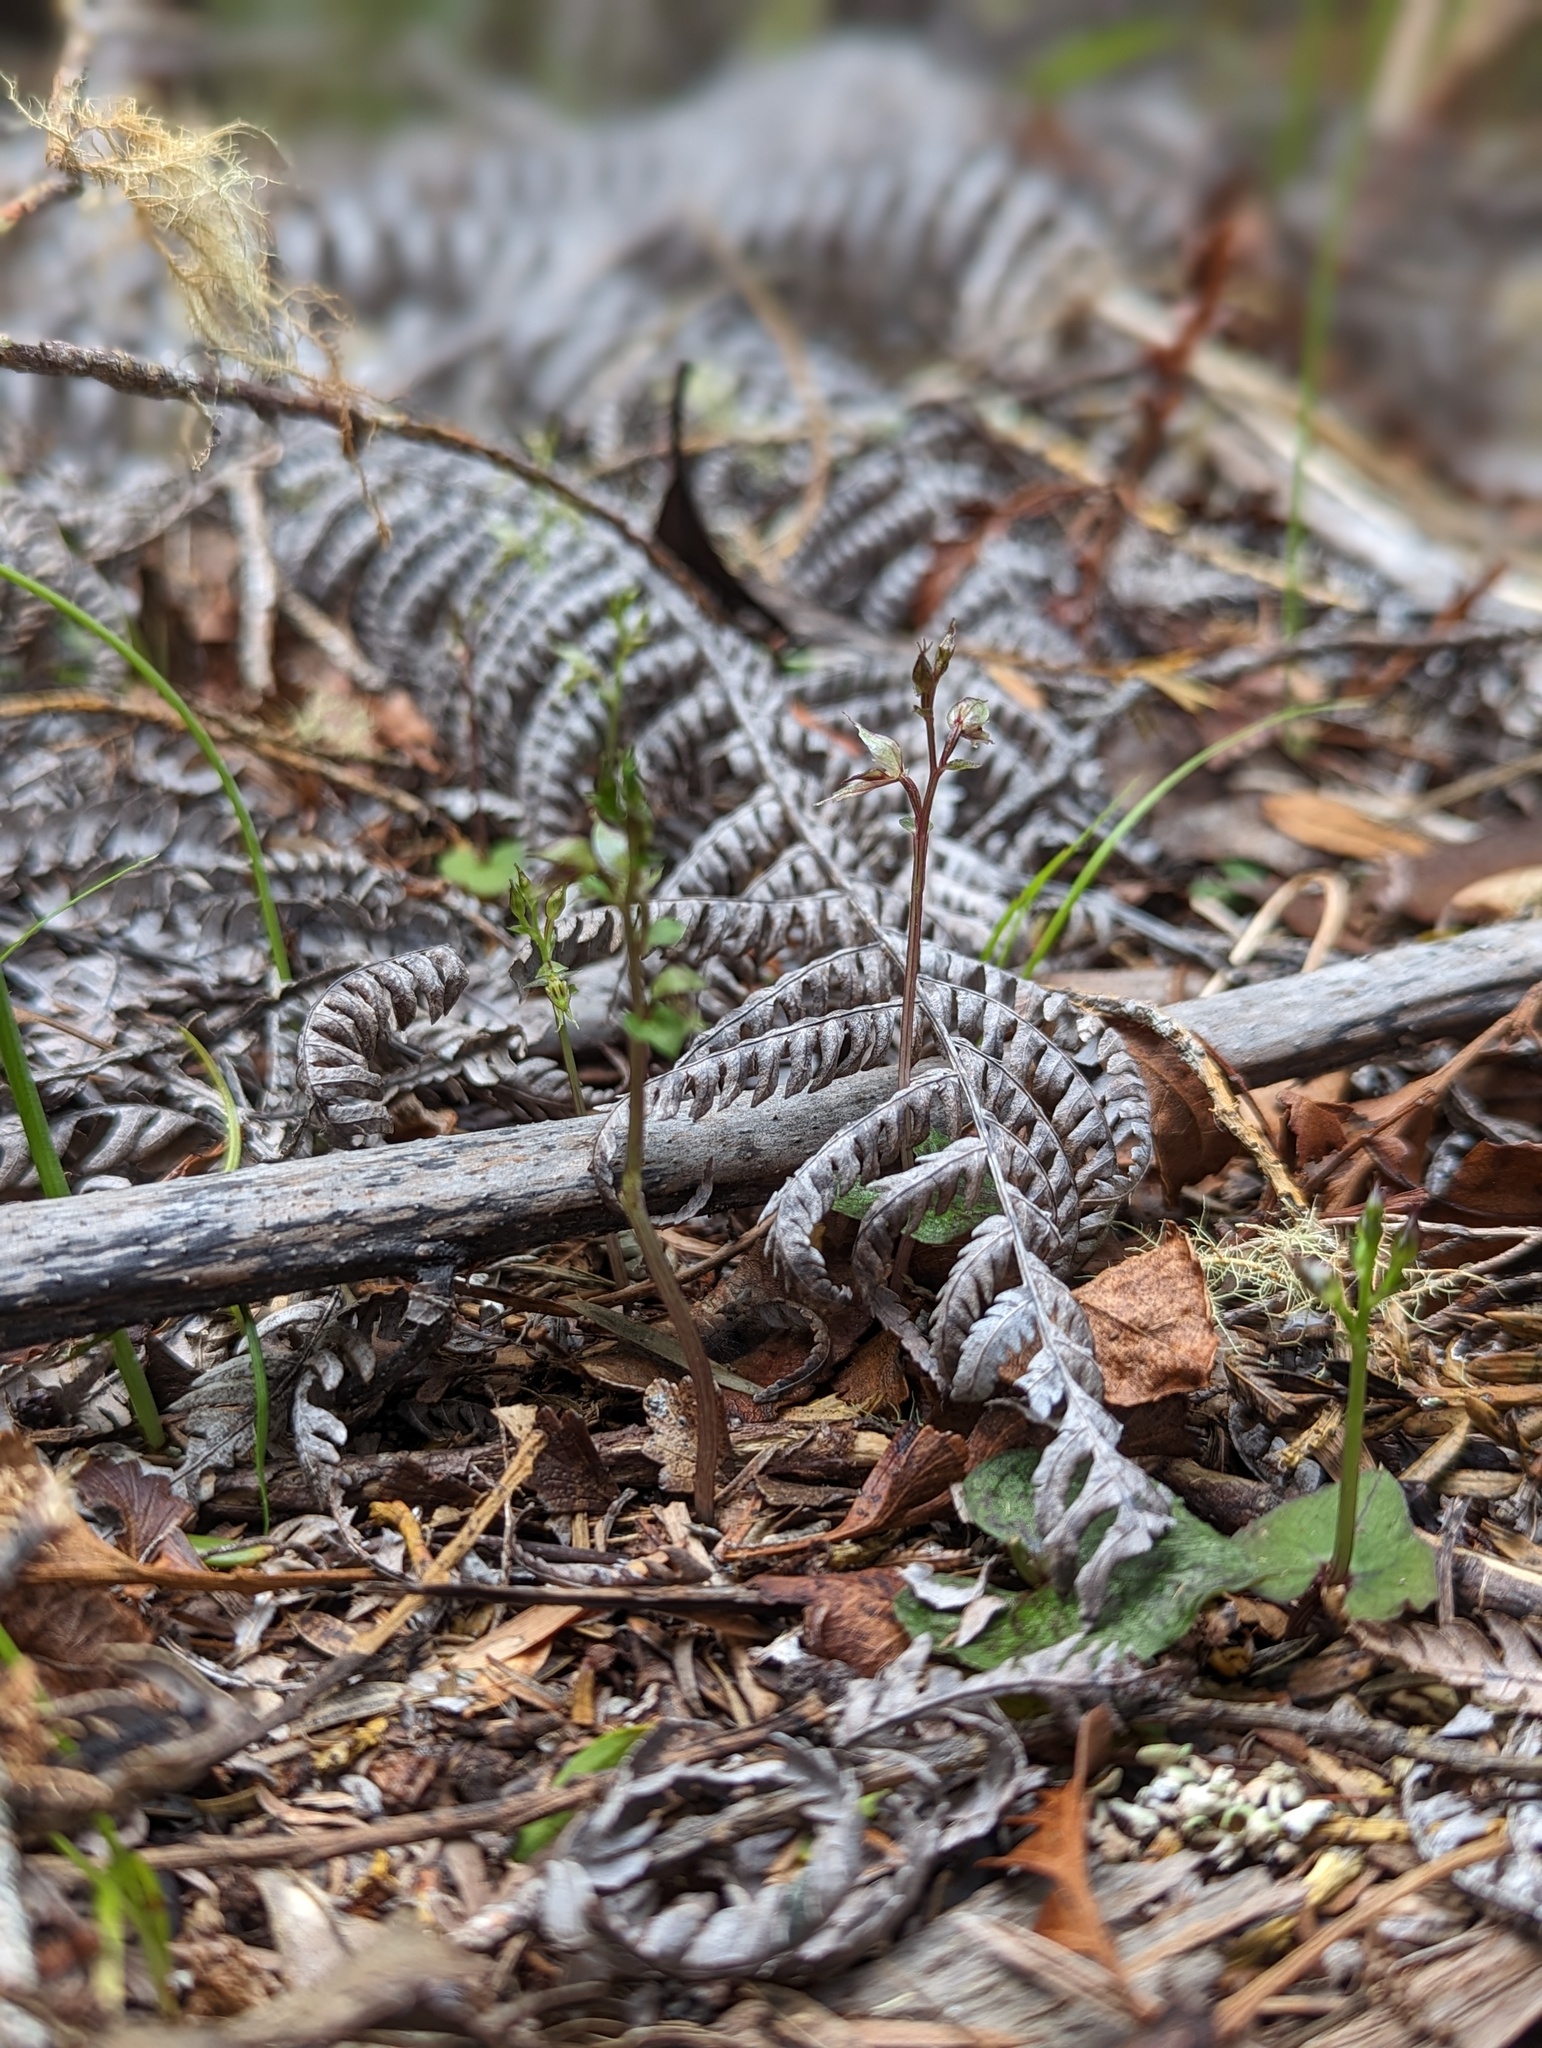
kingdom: Plantae
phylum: Tracheophyta
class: Liliopsida
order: Asparagales
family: Orchidaceae
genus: Acianthus
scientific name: Acianthus sinclairii
